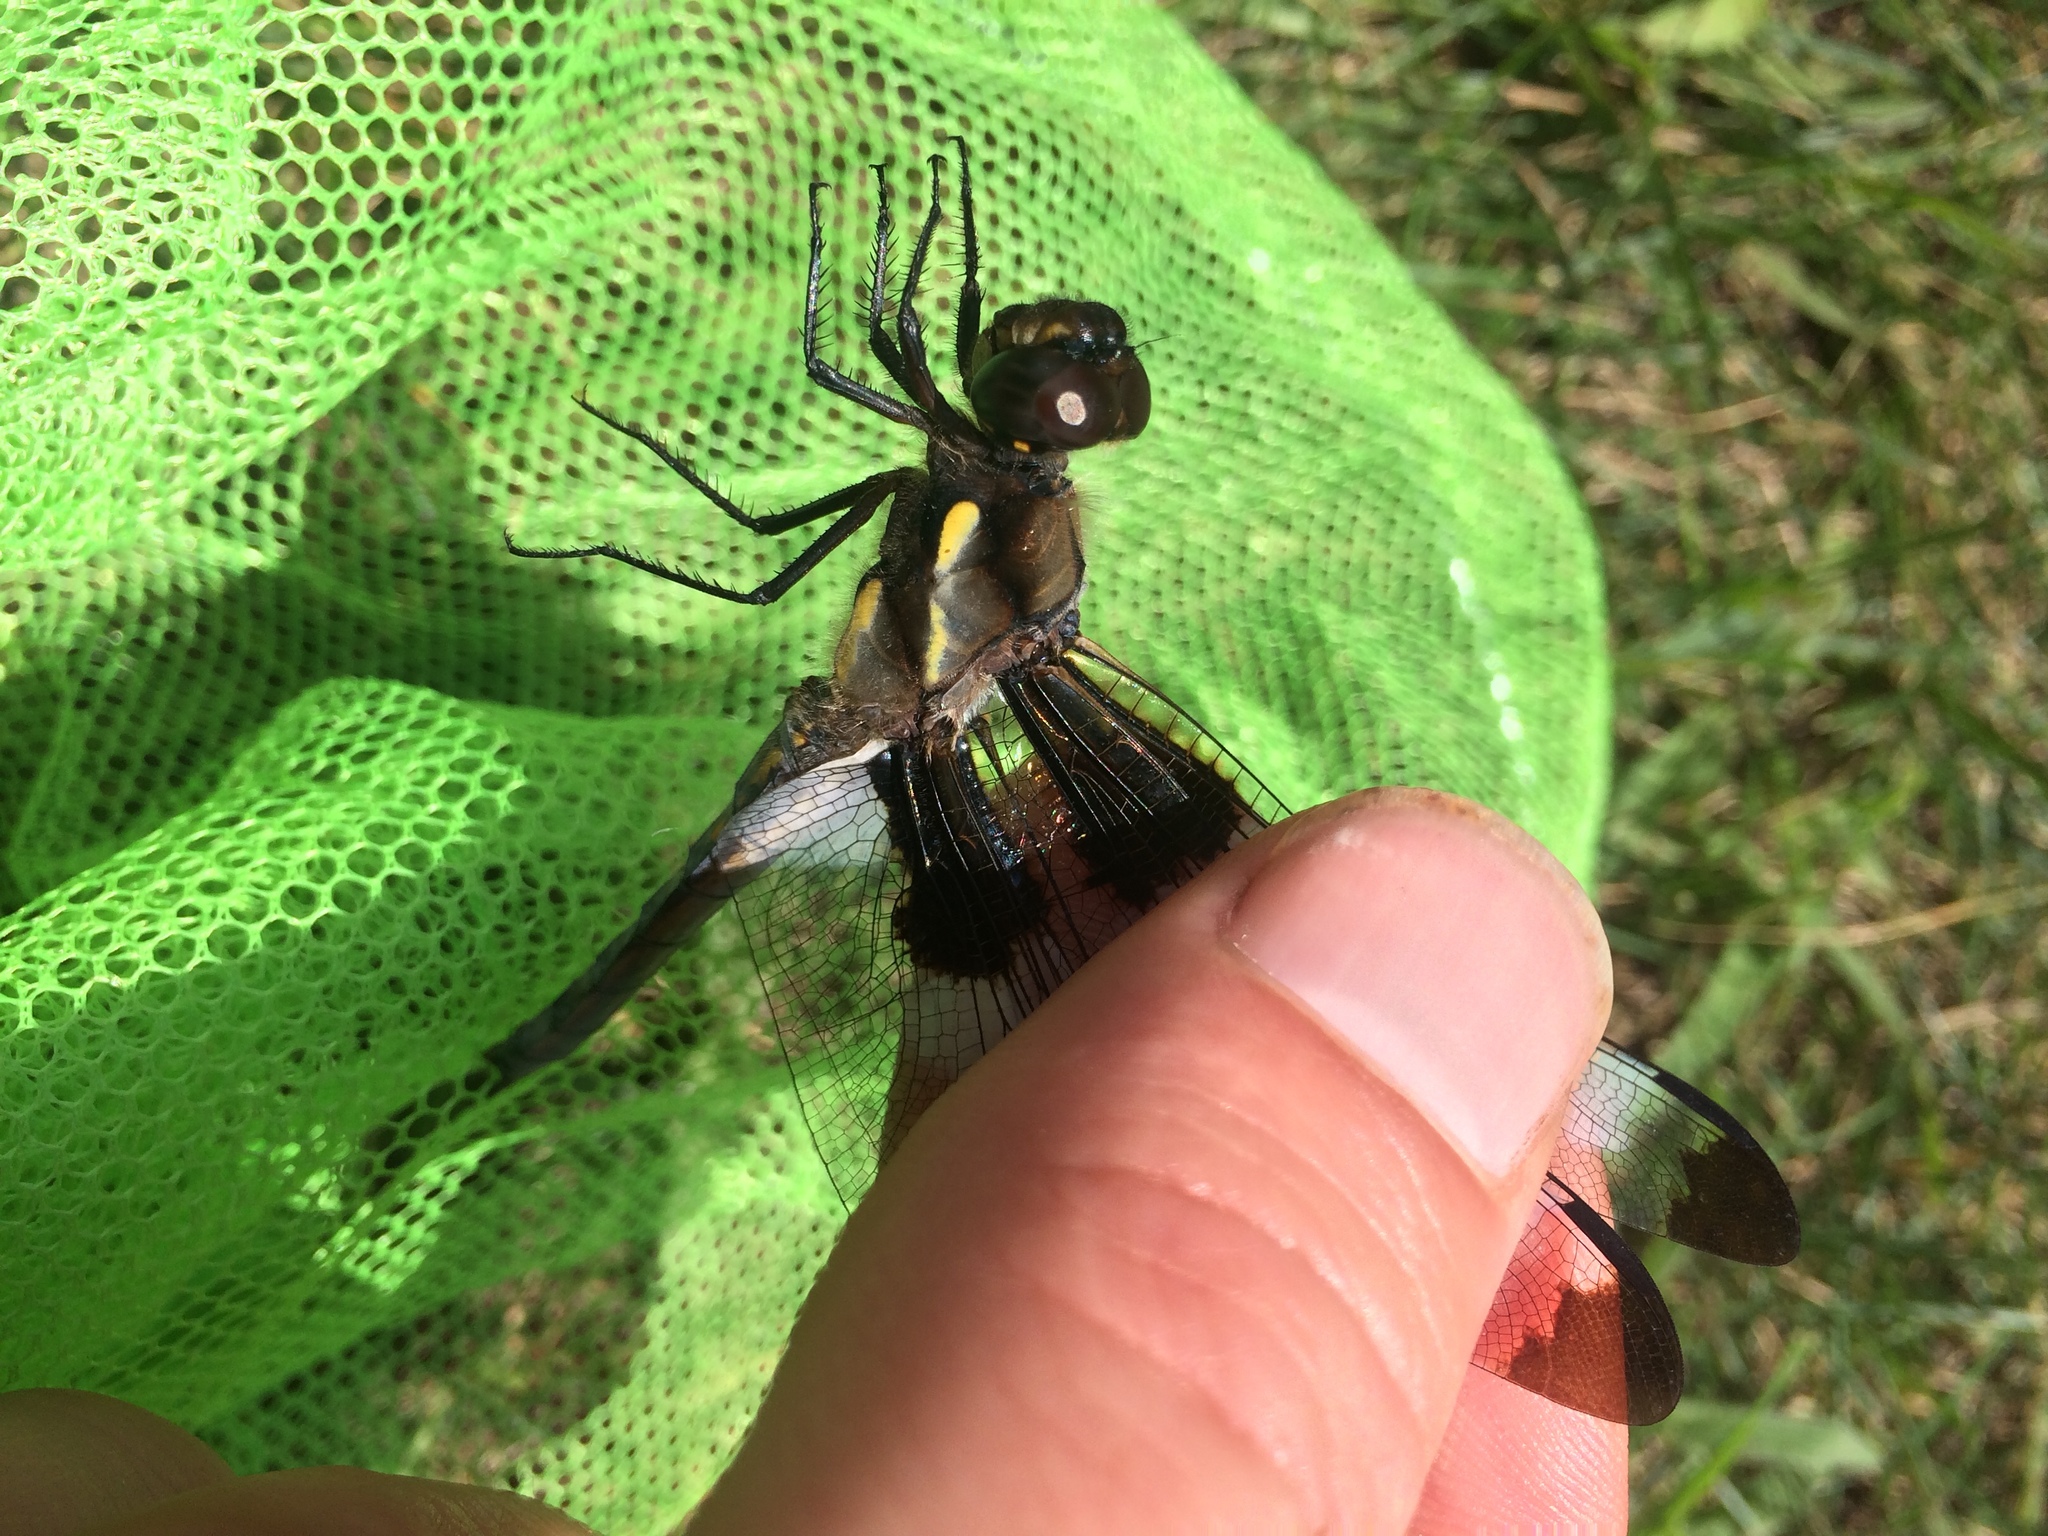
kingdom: Animalia
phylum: Arthropoda
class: Insecta
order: Odonata
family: Libellulidae
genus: Libellula
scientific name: Libellula pulchella
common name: Twelve-spotted skimmer
